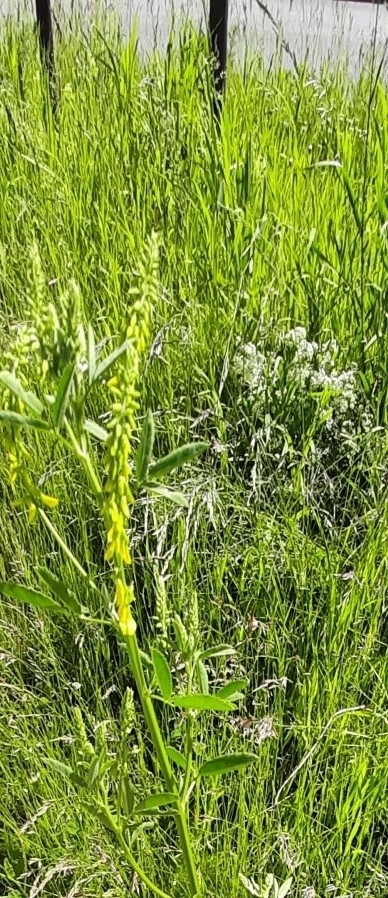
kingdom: Plantae
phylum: Tracheophyta
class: Magnoliopsida
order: Fabales
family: Fabaceae
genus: Melilotus
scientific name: Melilotus officinalis
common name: Sweetclover
